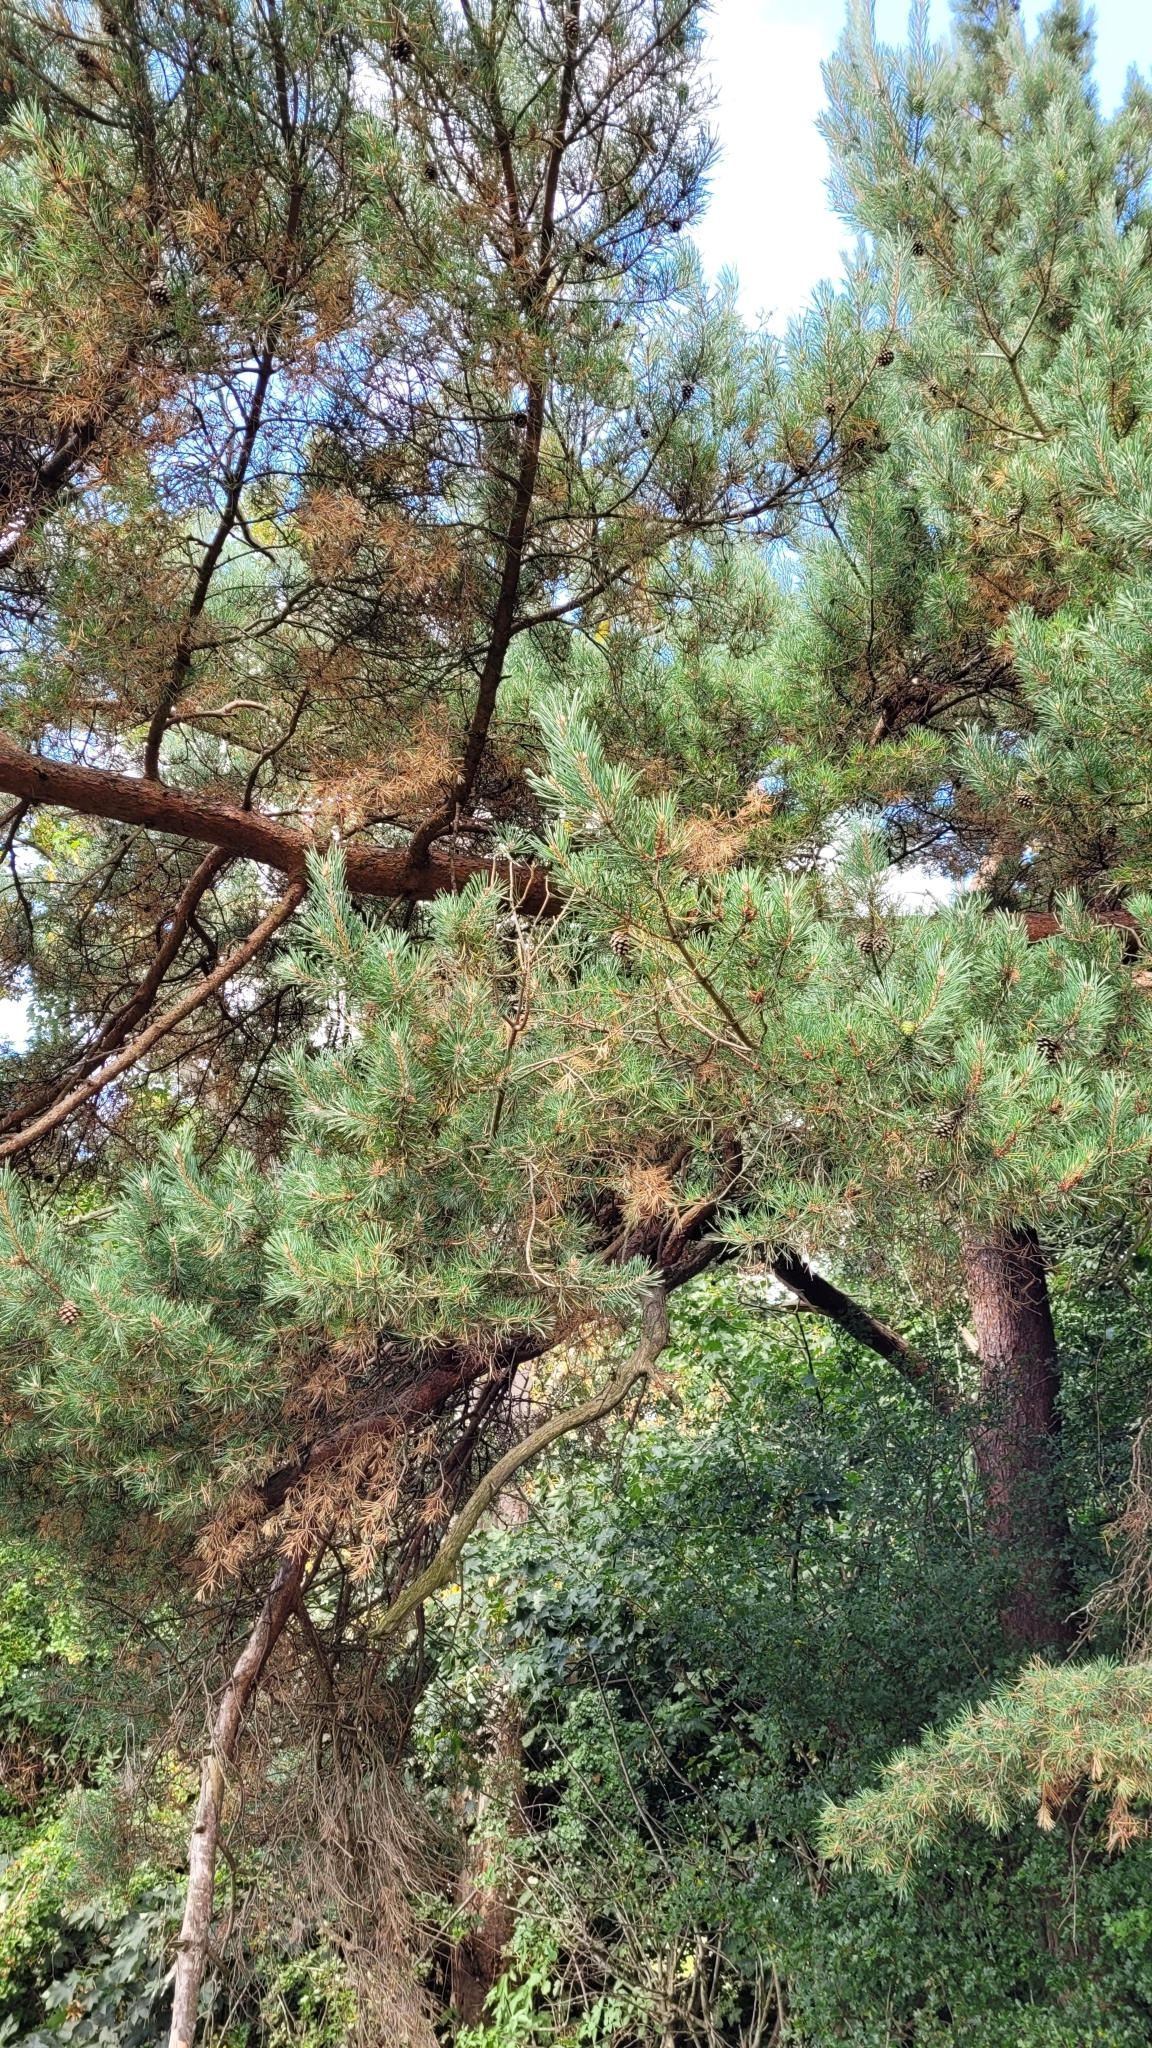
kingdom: Plantae
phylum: Tracheophyta
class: Pinopsida
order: Pinales
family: Pinaceae
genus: Pinus
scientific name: Pinus sylvestris
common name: Scots pine
